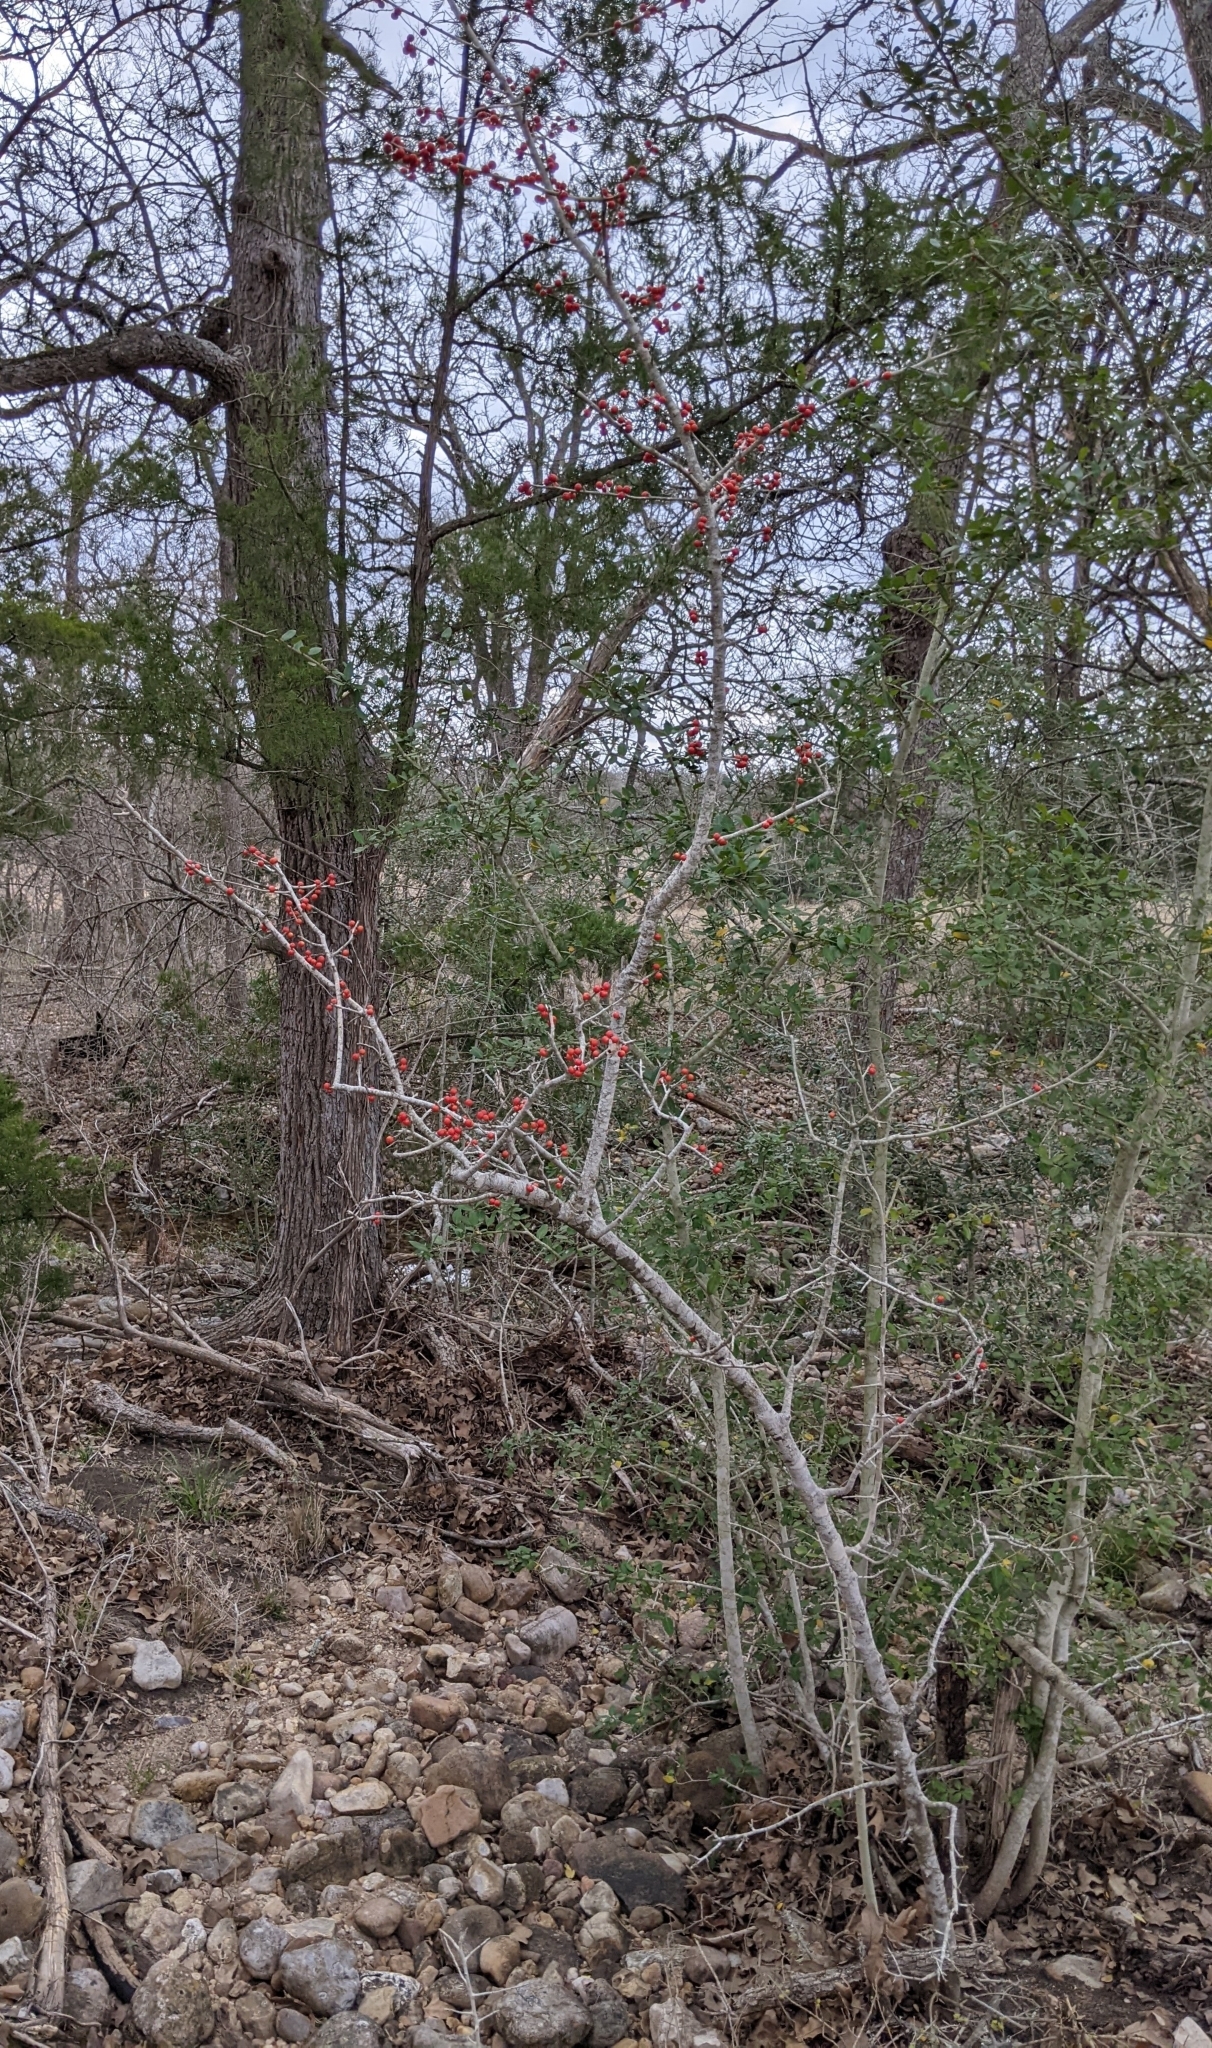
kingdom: Plantae
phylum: Tracheophyta
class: Magnoliopsida
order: Aquifoliales
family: Aquifoliaceae
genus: Ilex
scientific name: Ilex decidua
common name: Possum-haw
